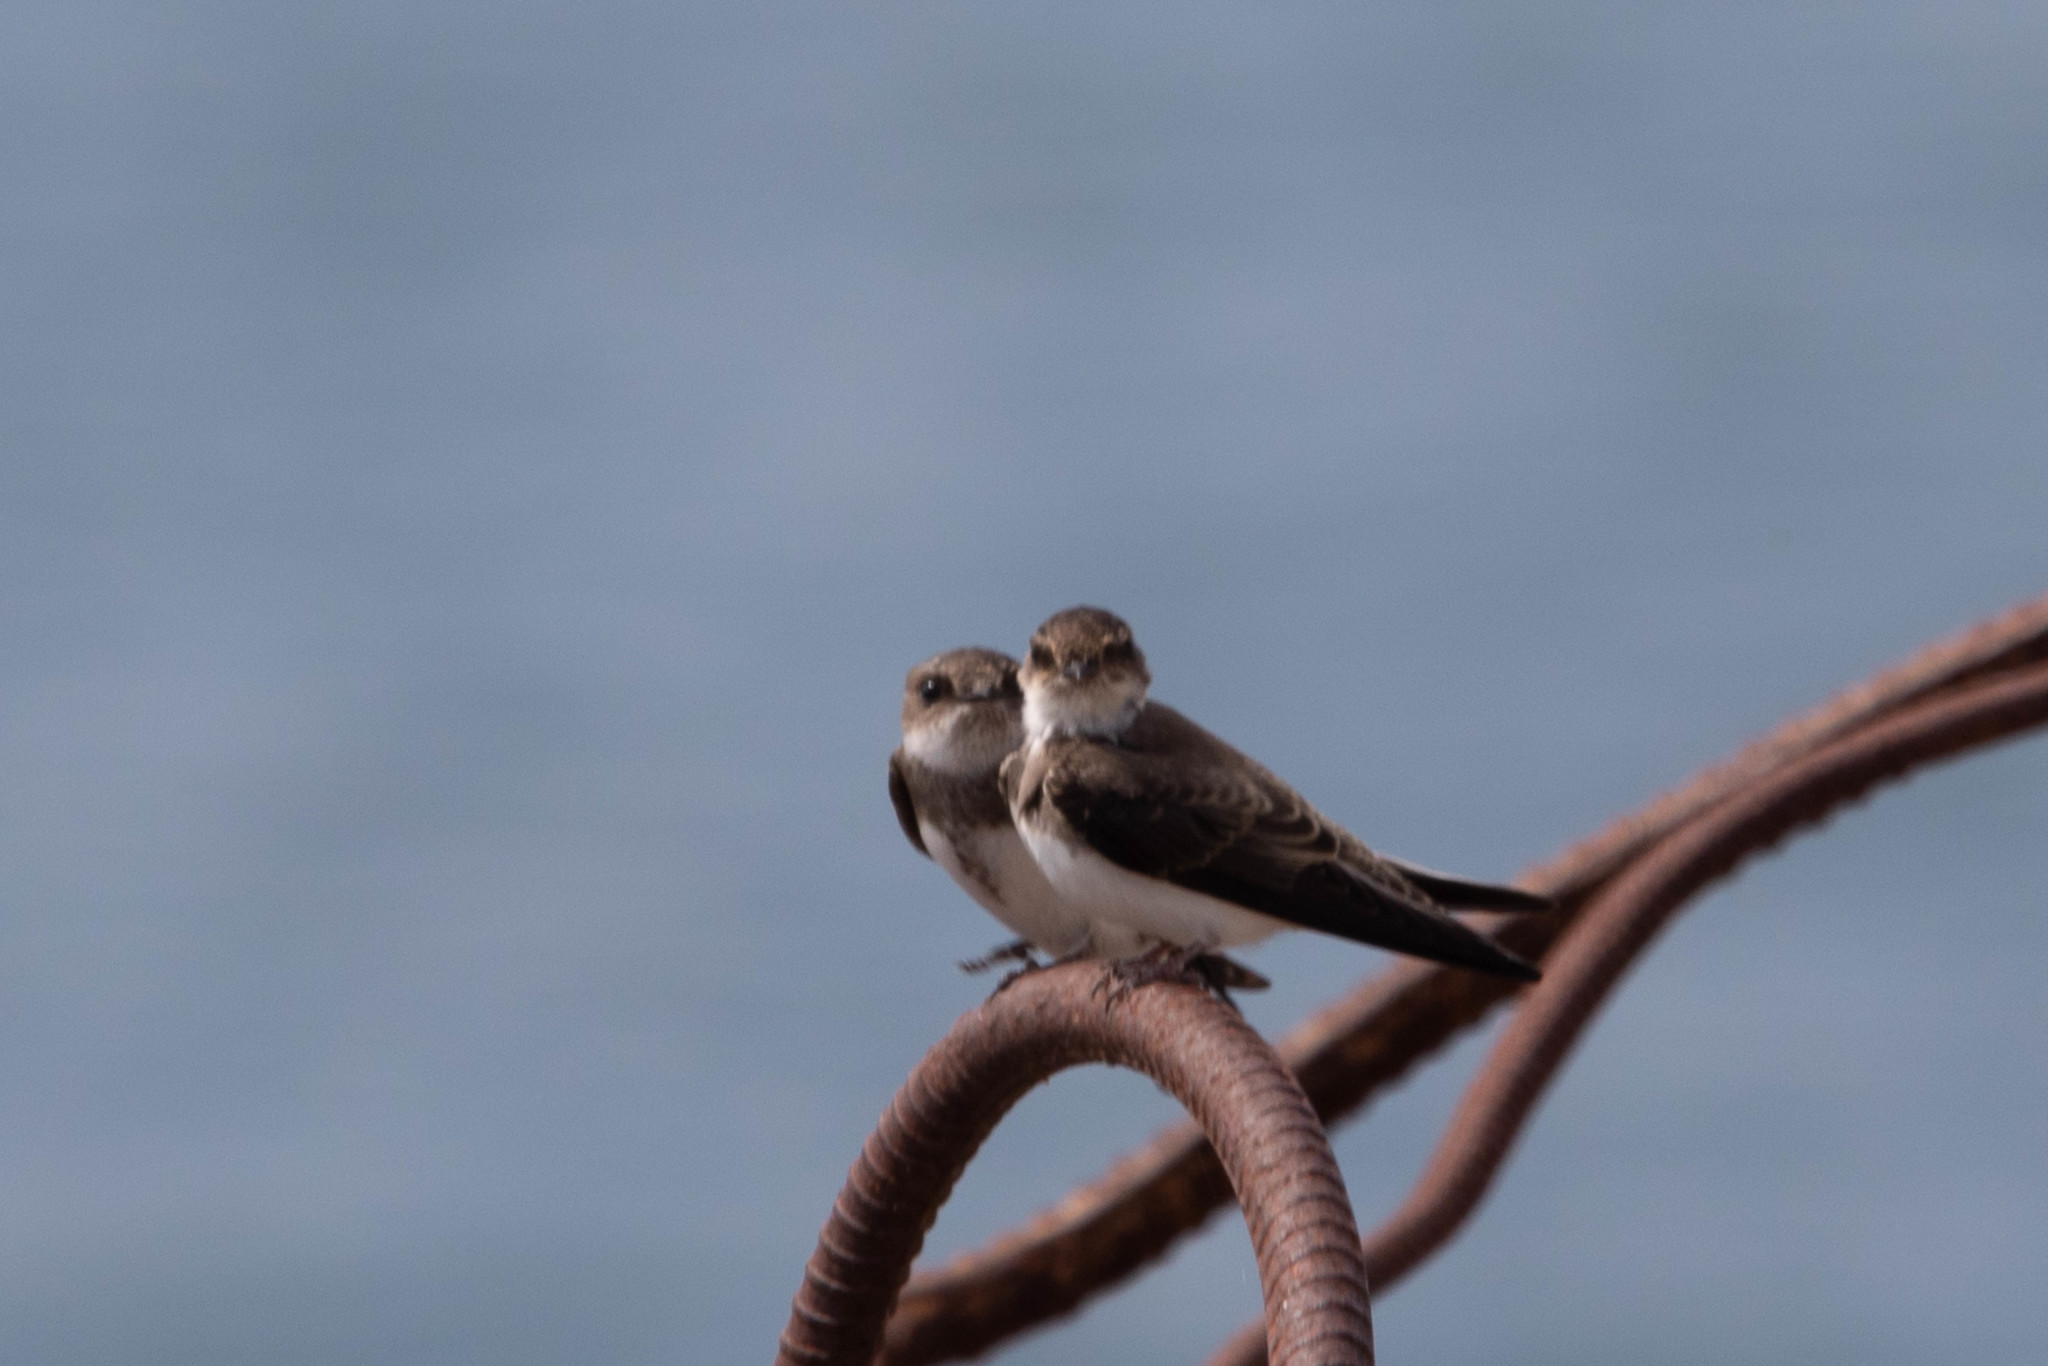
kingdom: Animalia
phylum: Chordata
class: Aves
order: Passeriformes
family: Hirundinidae
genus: Riparia
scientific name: Riparia riparia
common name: Sand martin
